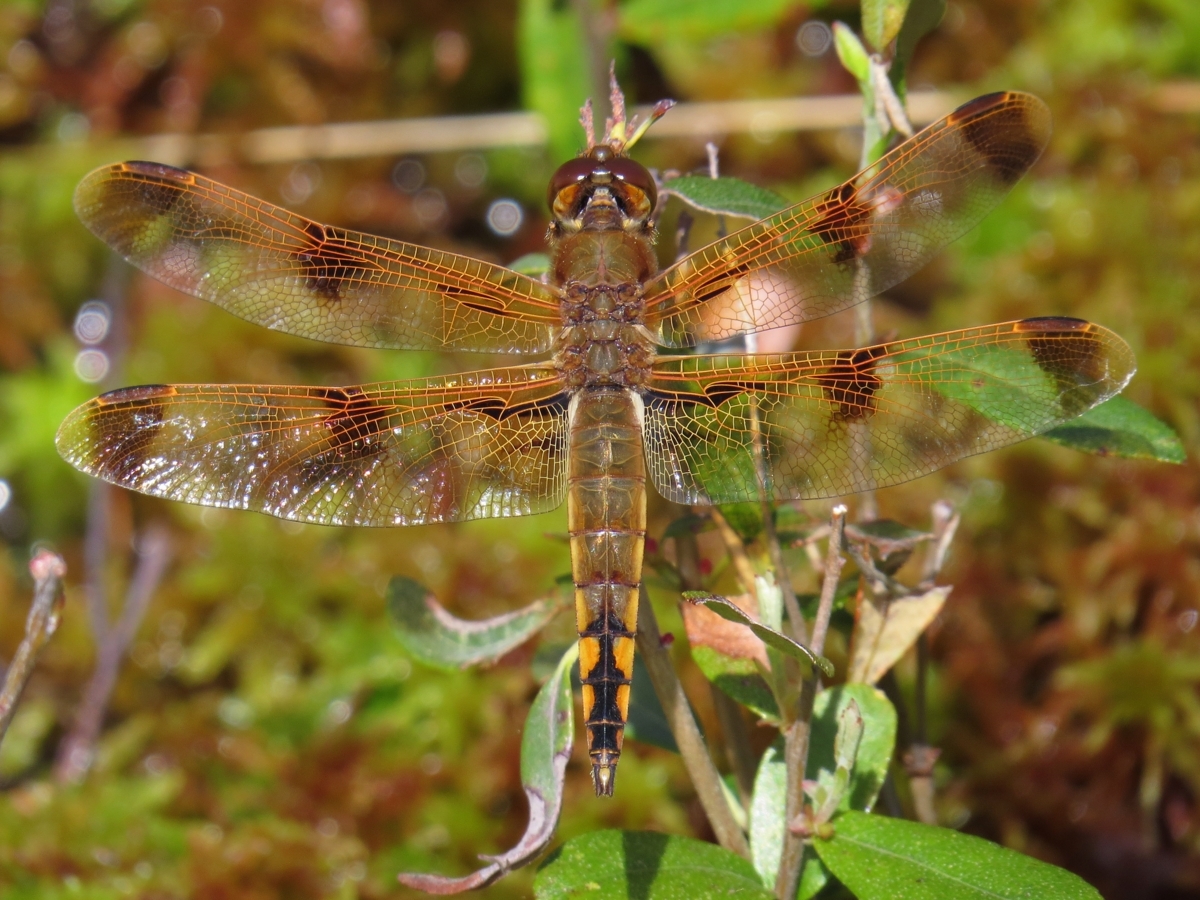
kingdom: Animalia
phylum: Arthropoda
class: Insecta
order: Odonata
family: Libellulidae
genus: Libellula
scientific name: Libellula semifasciata
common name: Painted skimmer
